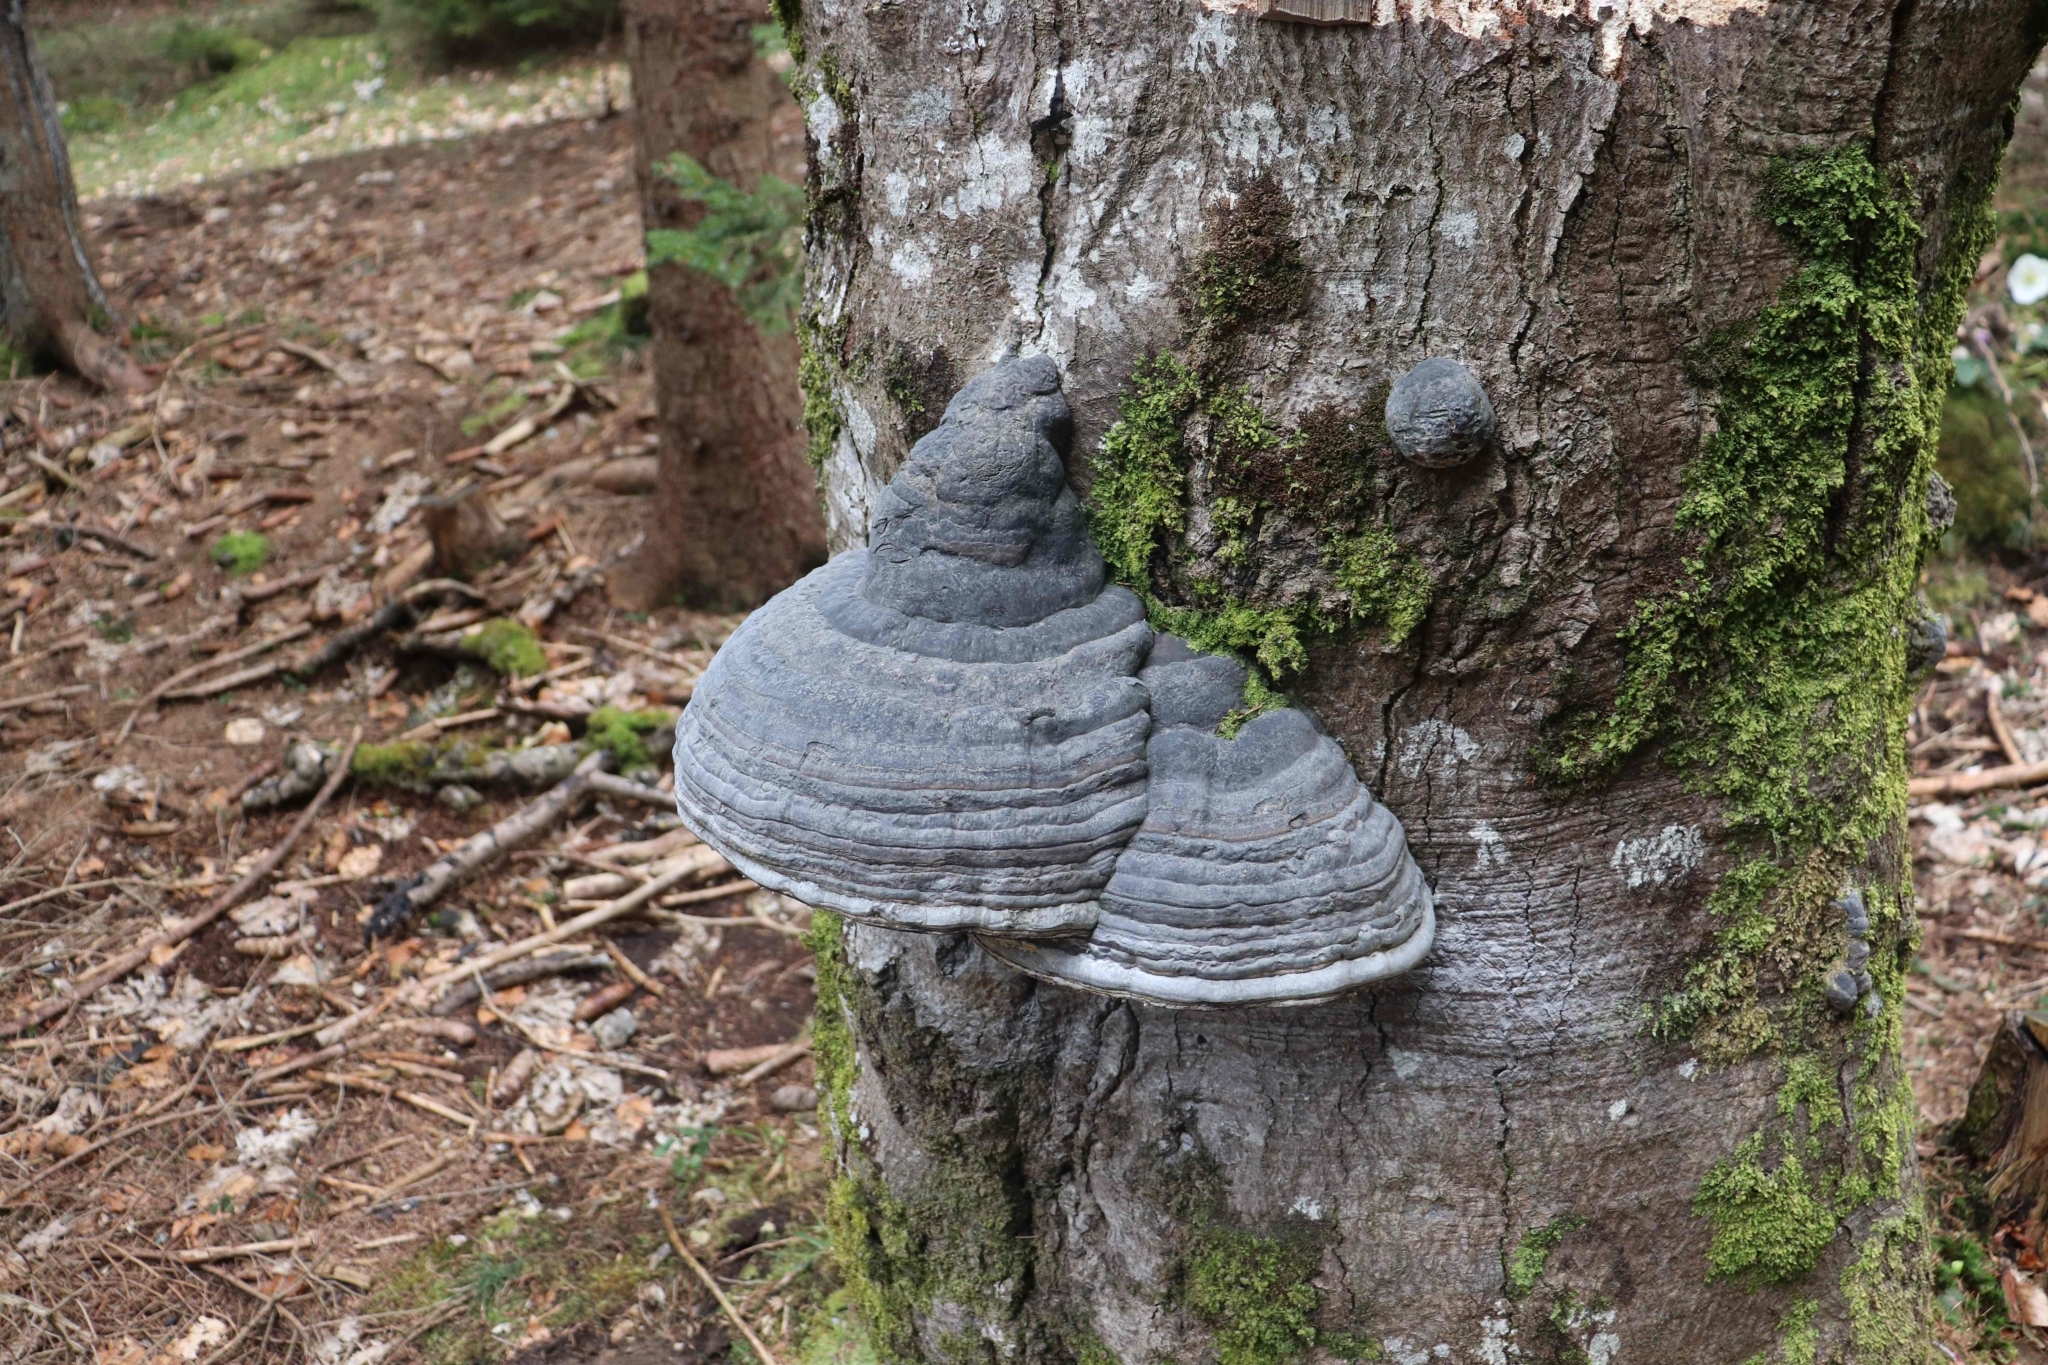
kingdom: Fungi
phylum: Basidiomycota
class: Agaricomycetes
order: Polyporales
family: Polyporaceae
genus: Fomes
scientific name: Fomes fomentarius
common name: Hoof fungus
